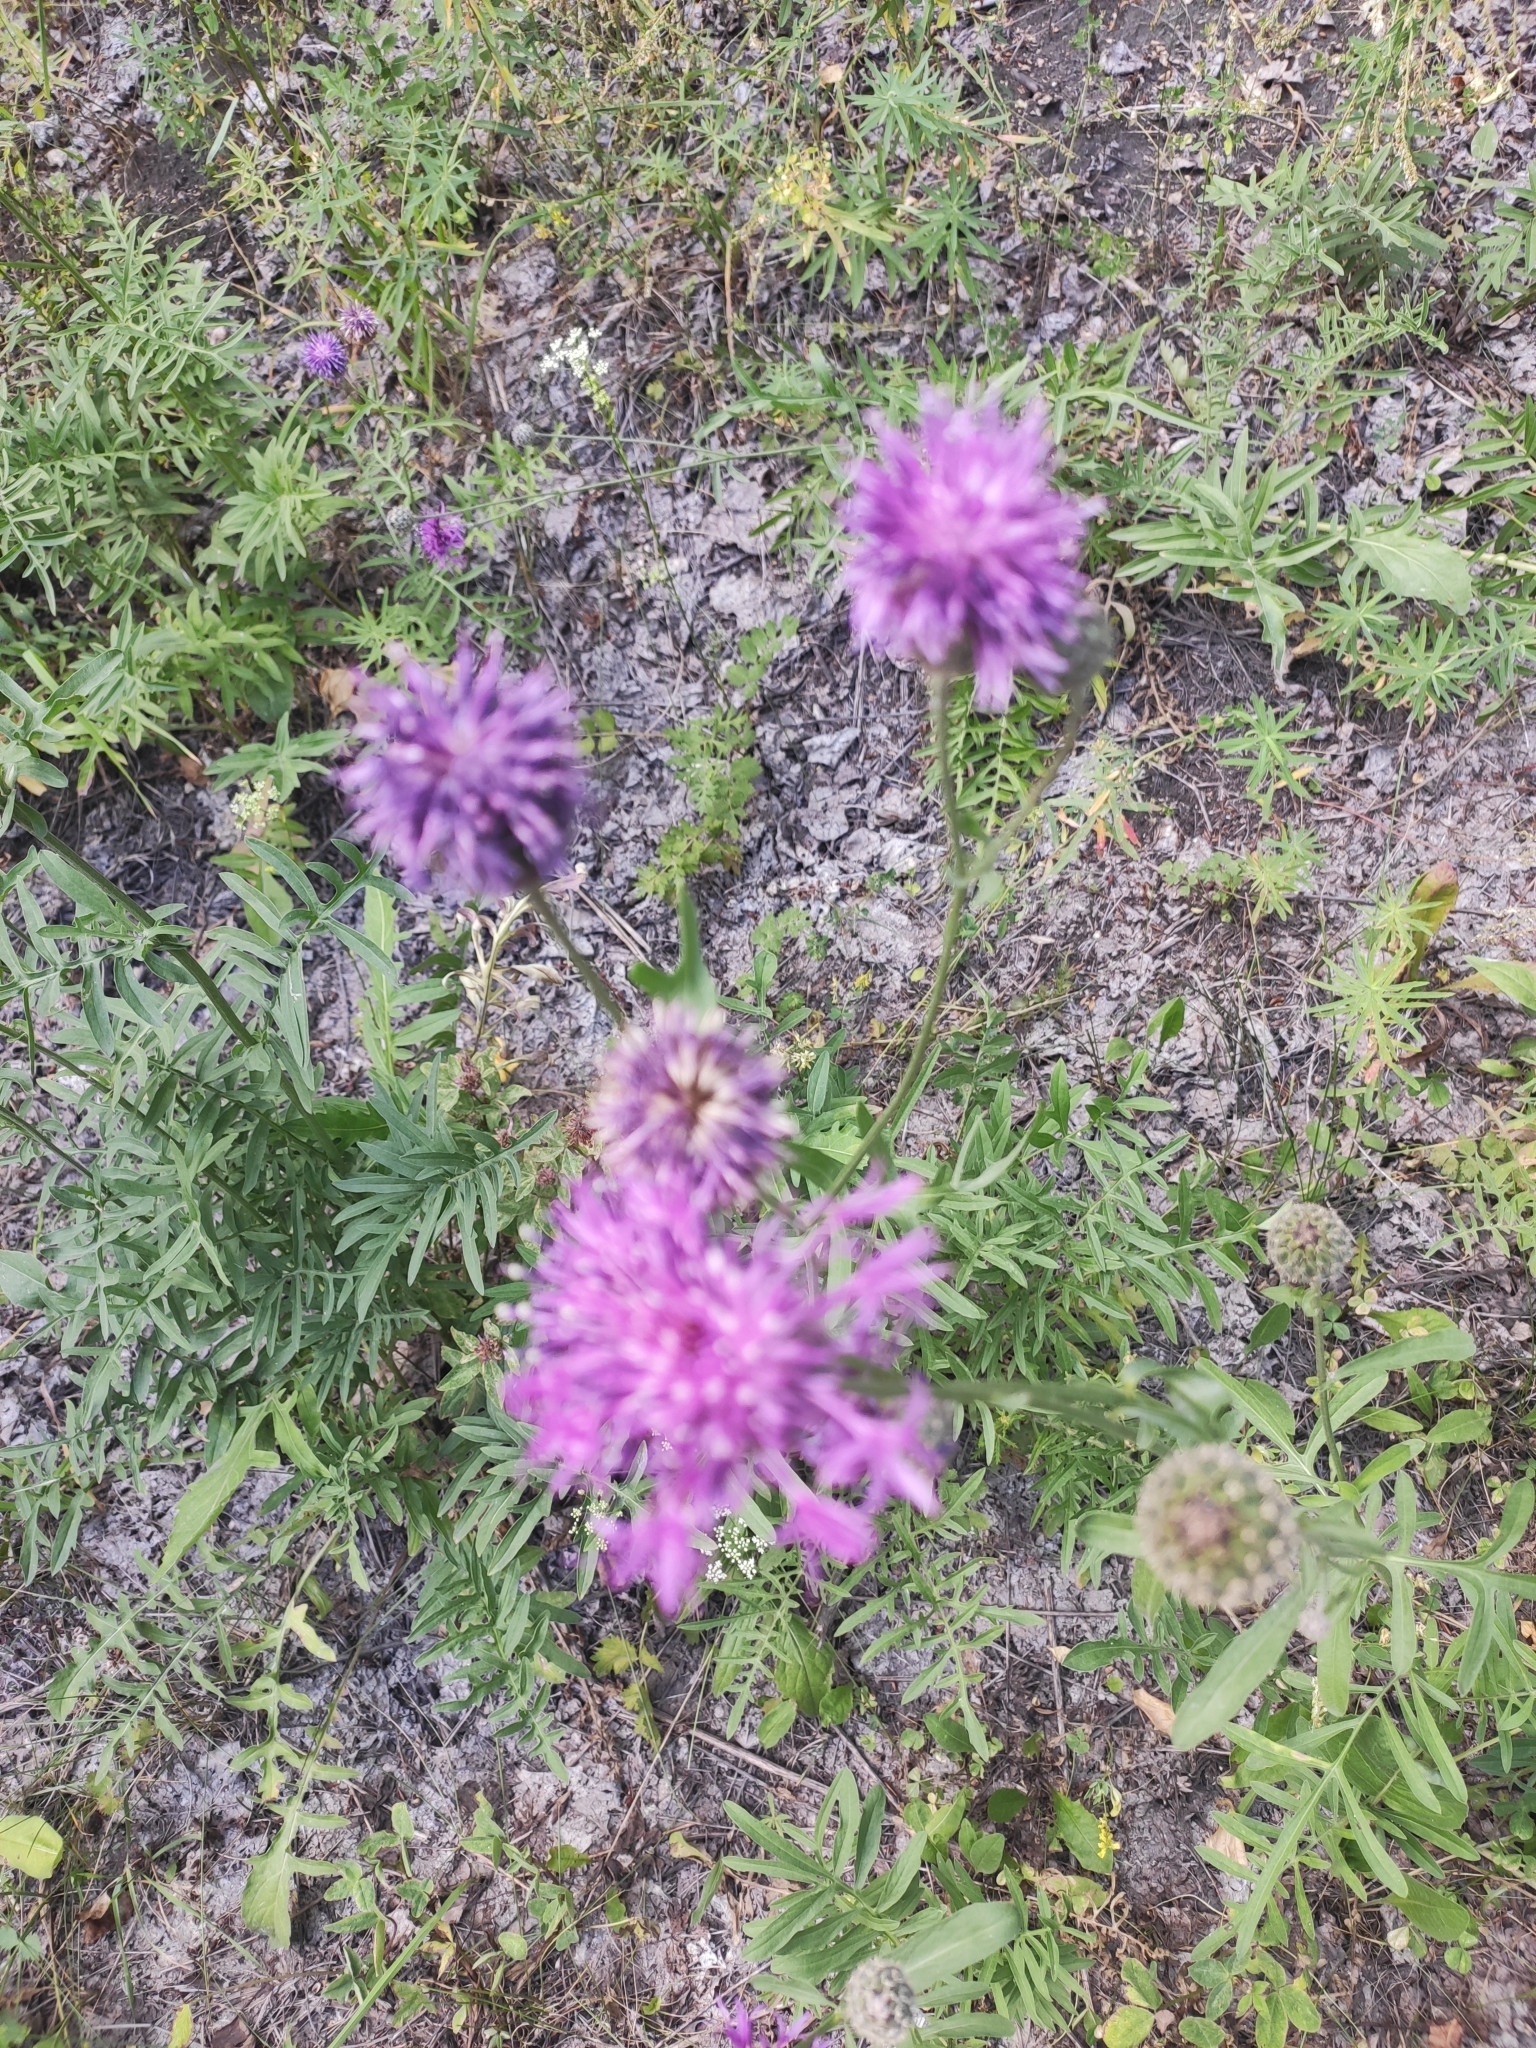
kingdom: Plantae
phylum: Tracheophyta
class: Magnoliopsida
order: Asterales
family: Asteraceae
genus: Centaurea
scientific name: Centaurea scabiosa
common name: Greater knapweed
